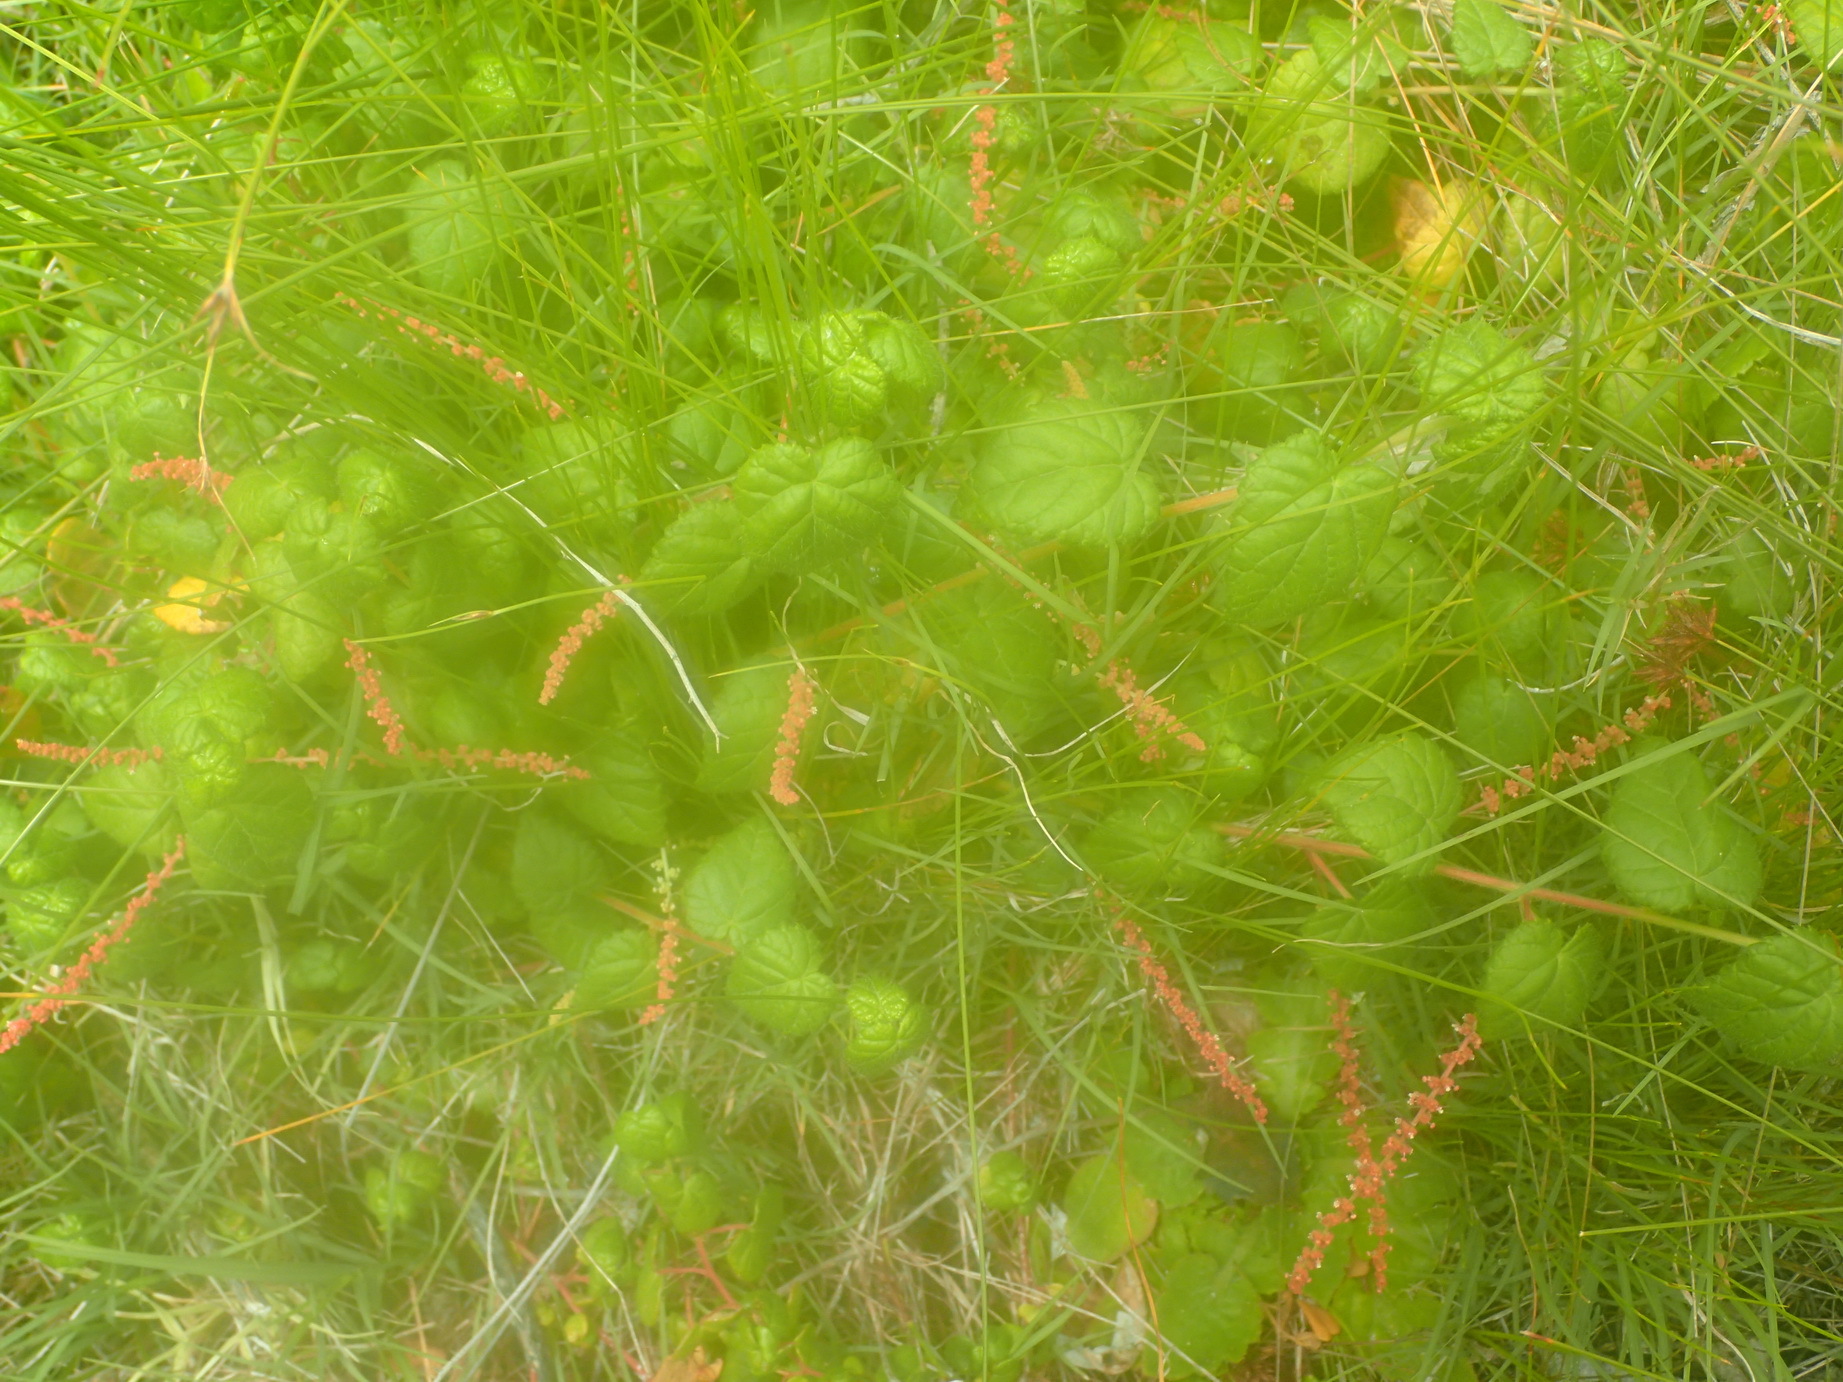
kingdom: Plantae
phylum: Tracheophyta
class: Magnoliopsida
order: Malpighiales
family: Euphorbiaceae
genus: Bernardia
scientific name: Bernardia corensis
